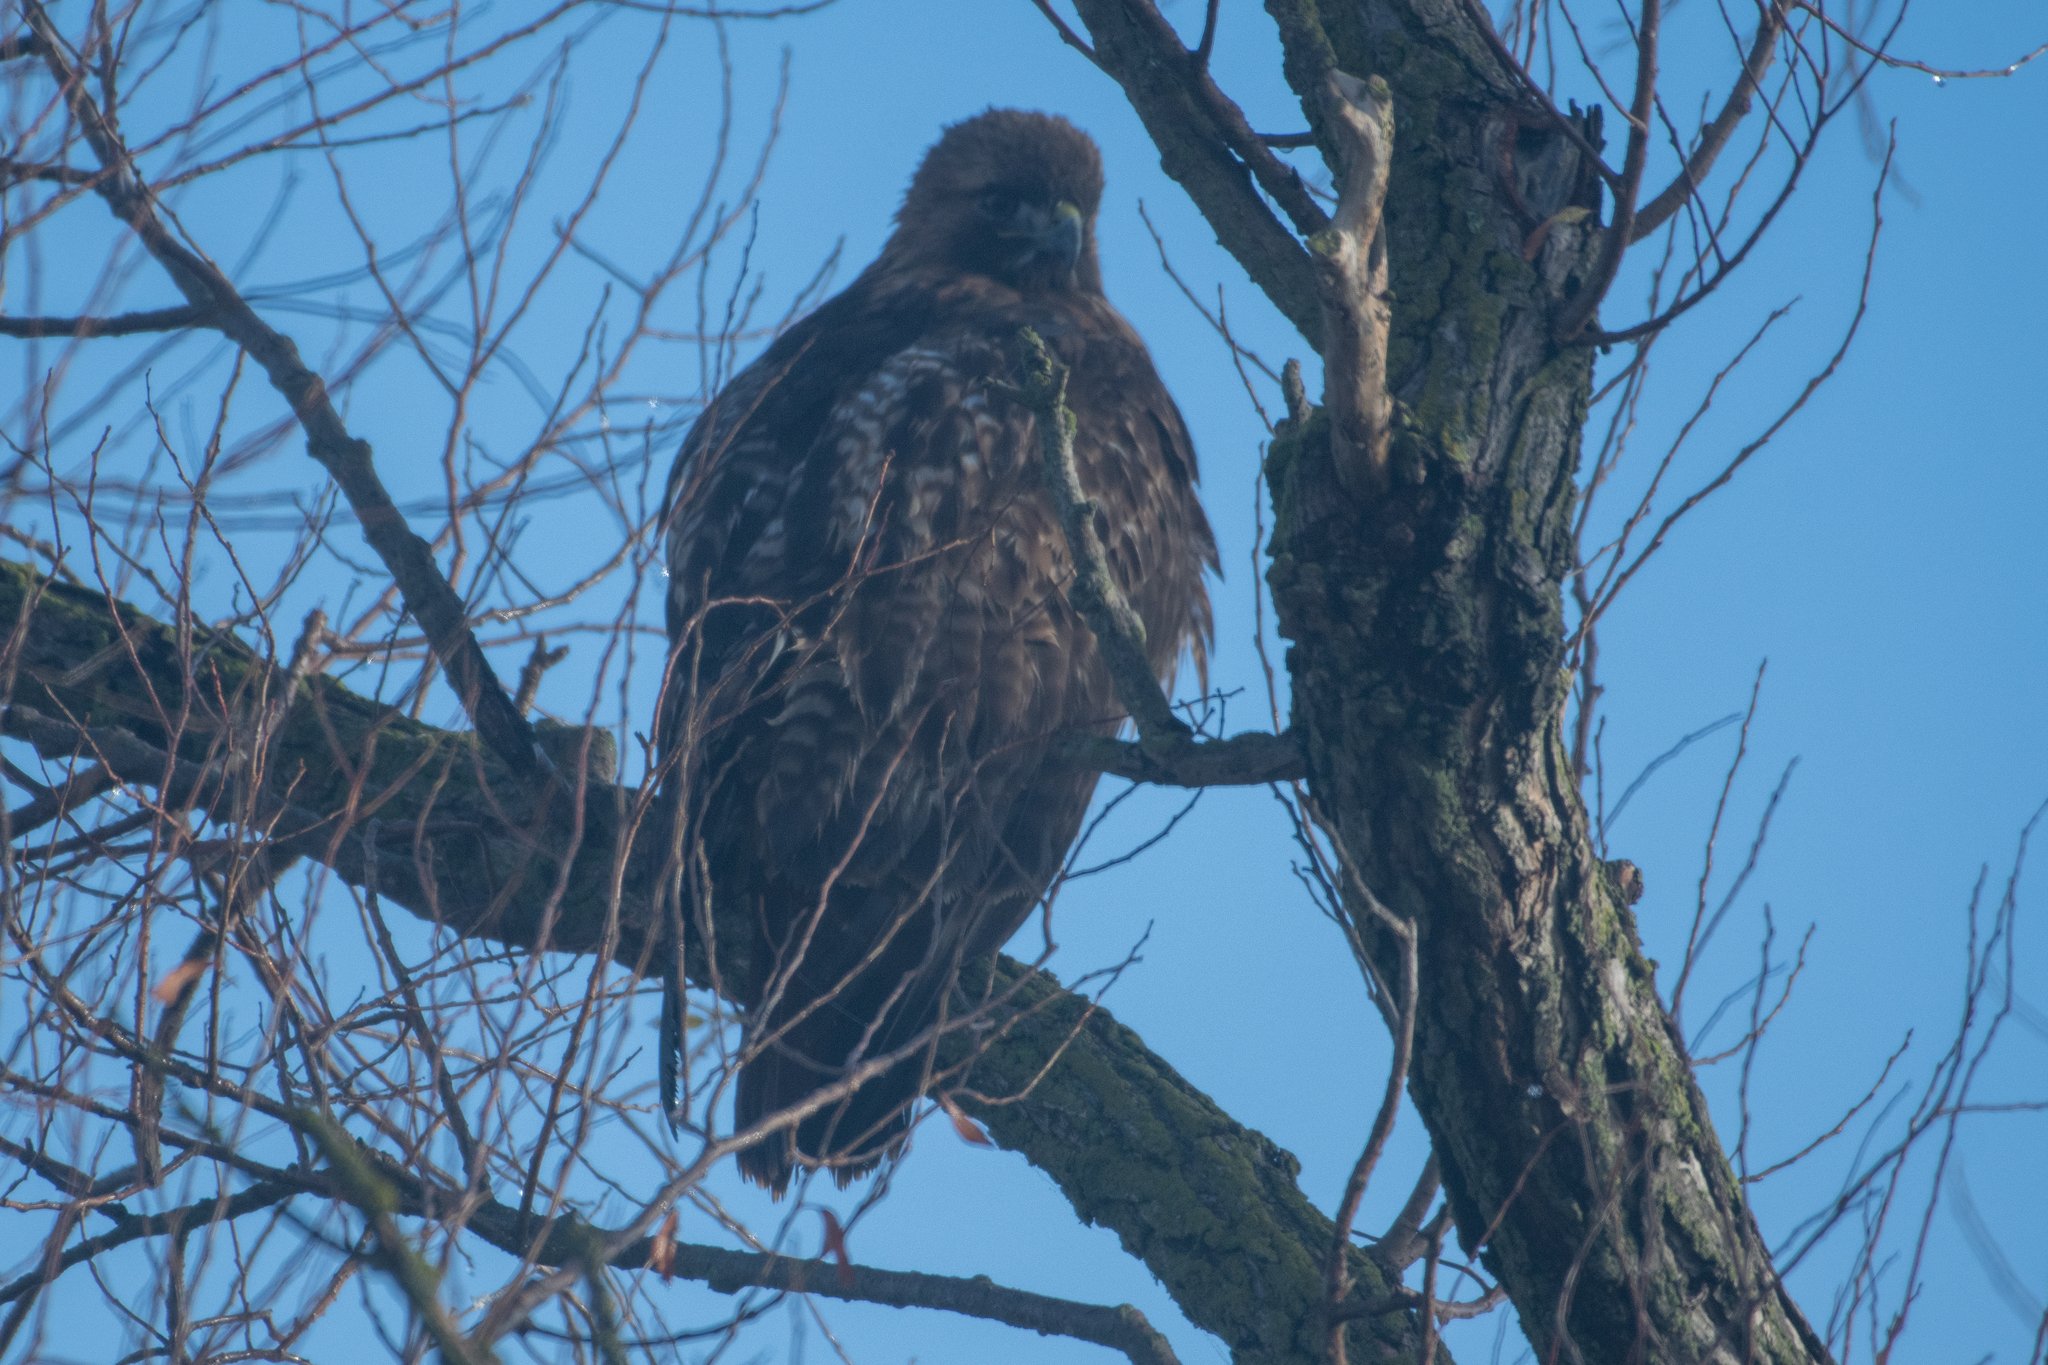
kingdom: Animalia
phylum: Chordata
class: Aves
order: Accipitriformes
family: Accipitridae
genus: Buteo
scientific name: Buteo jamaicensis
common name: Red-tailed hawk
